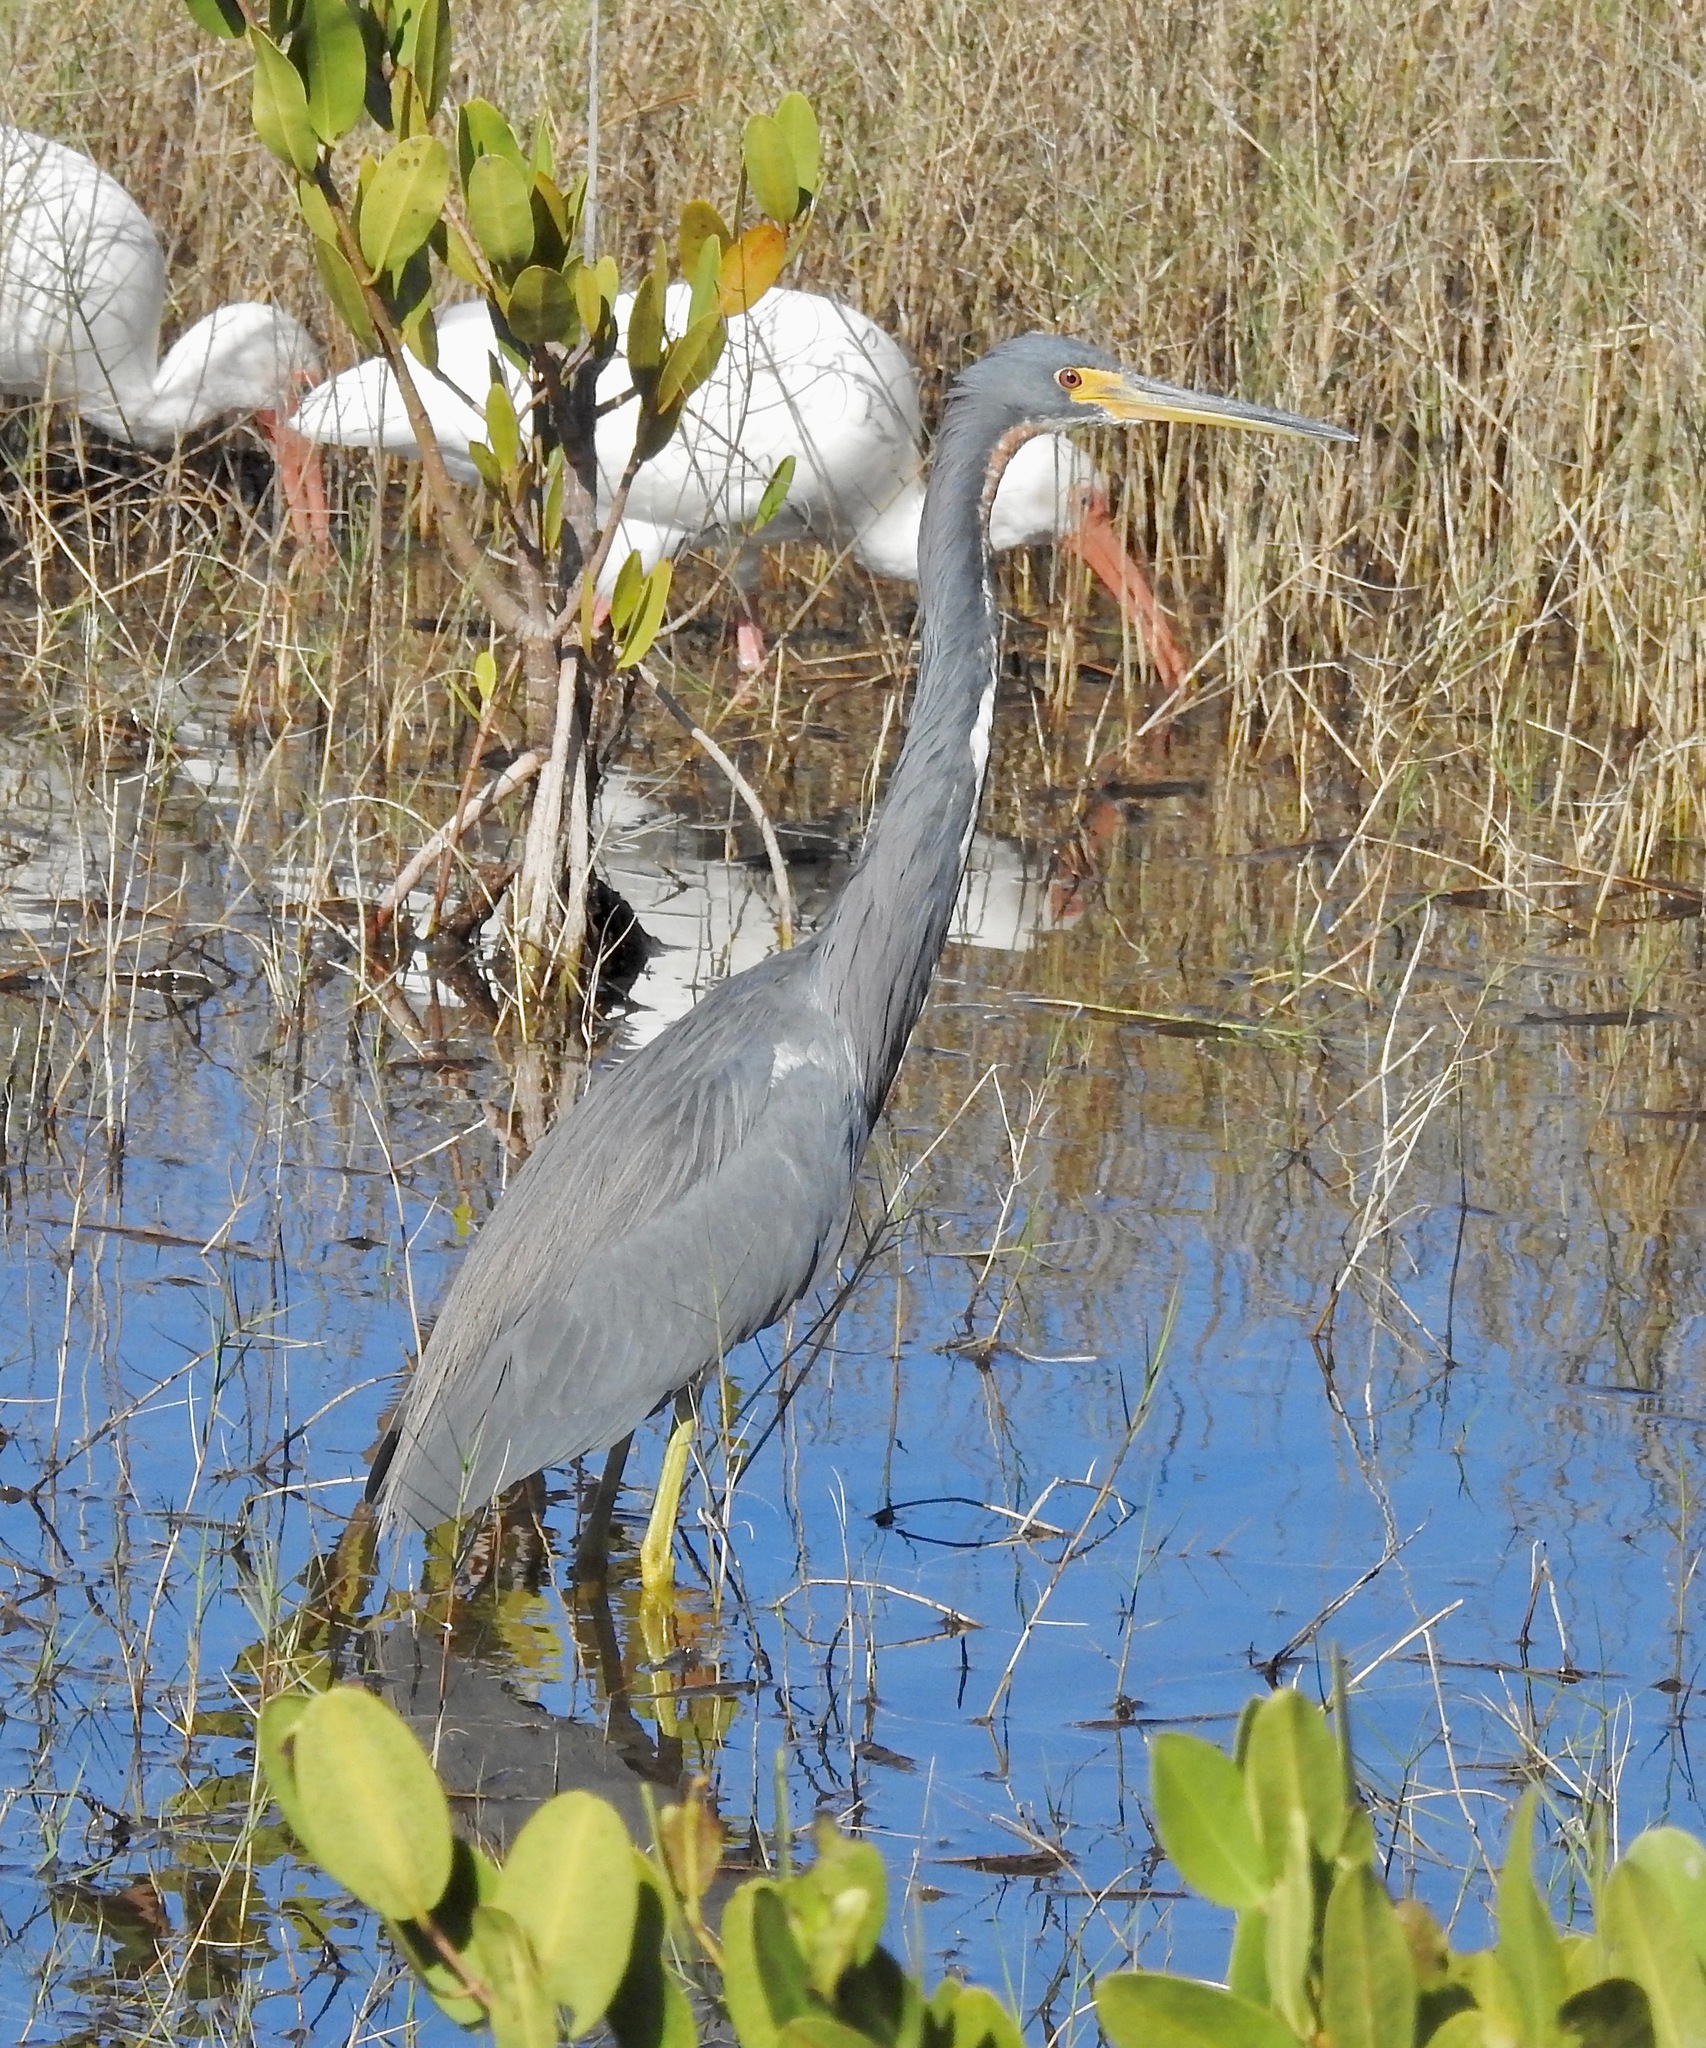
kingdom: Animalia
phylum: Chordata
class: Aves
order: Pelecaniformes
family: Ardeidae
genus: Egretta
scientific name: Egretta tricolor
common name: Tricolored heron
